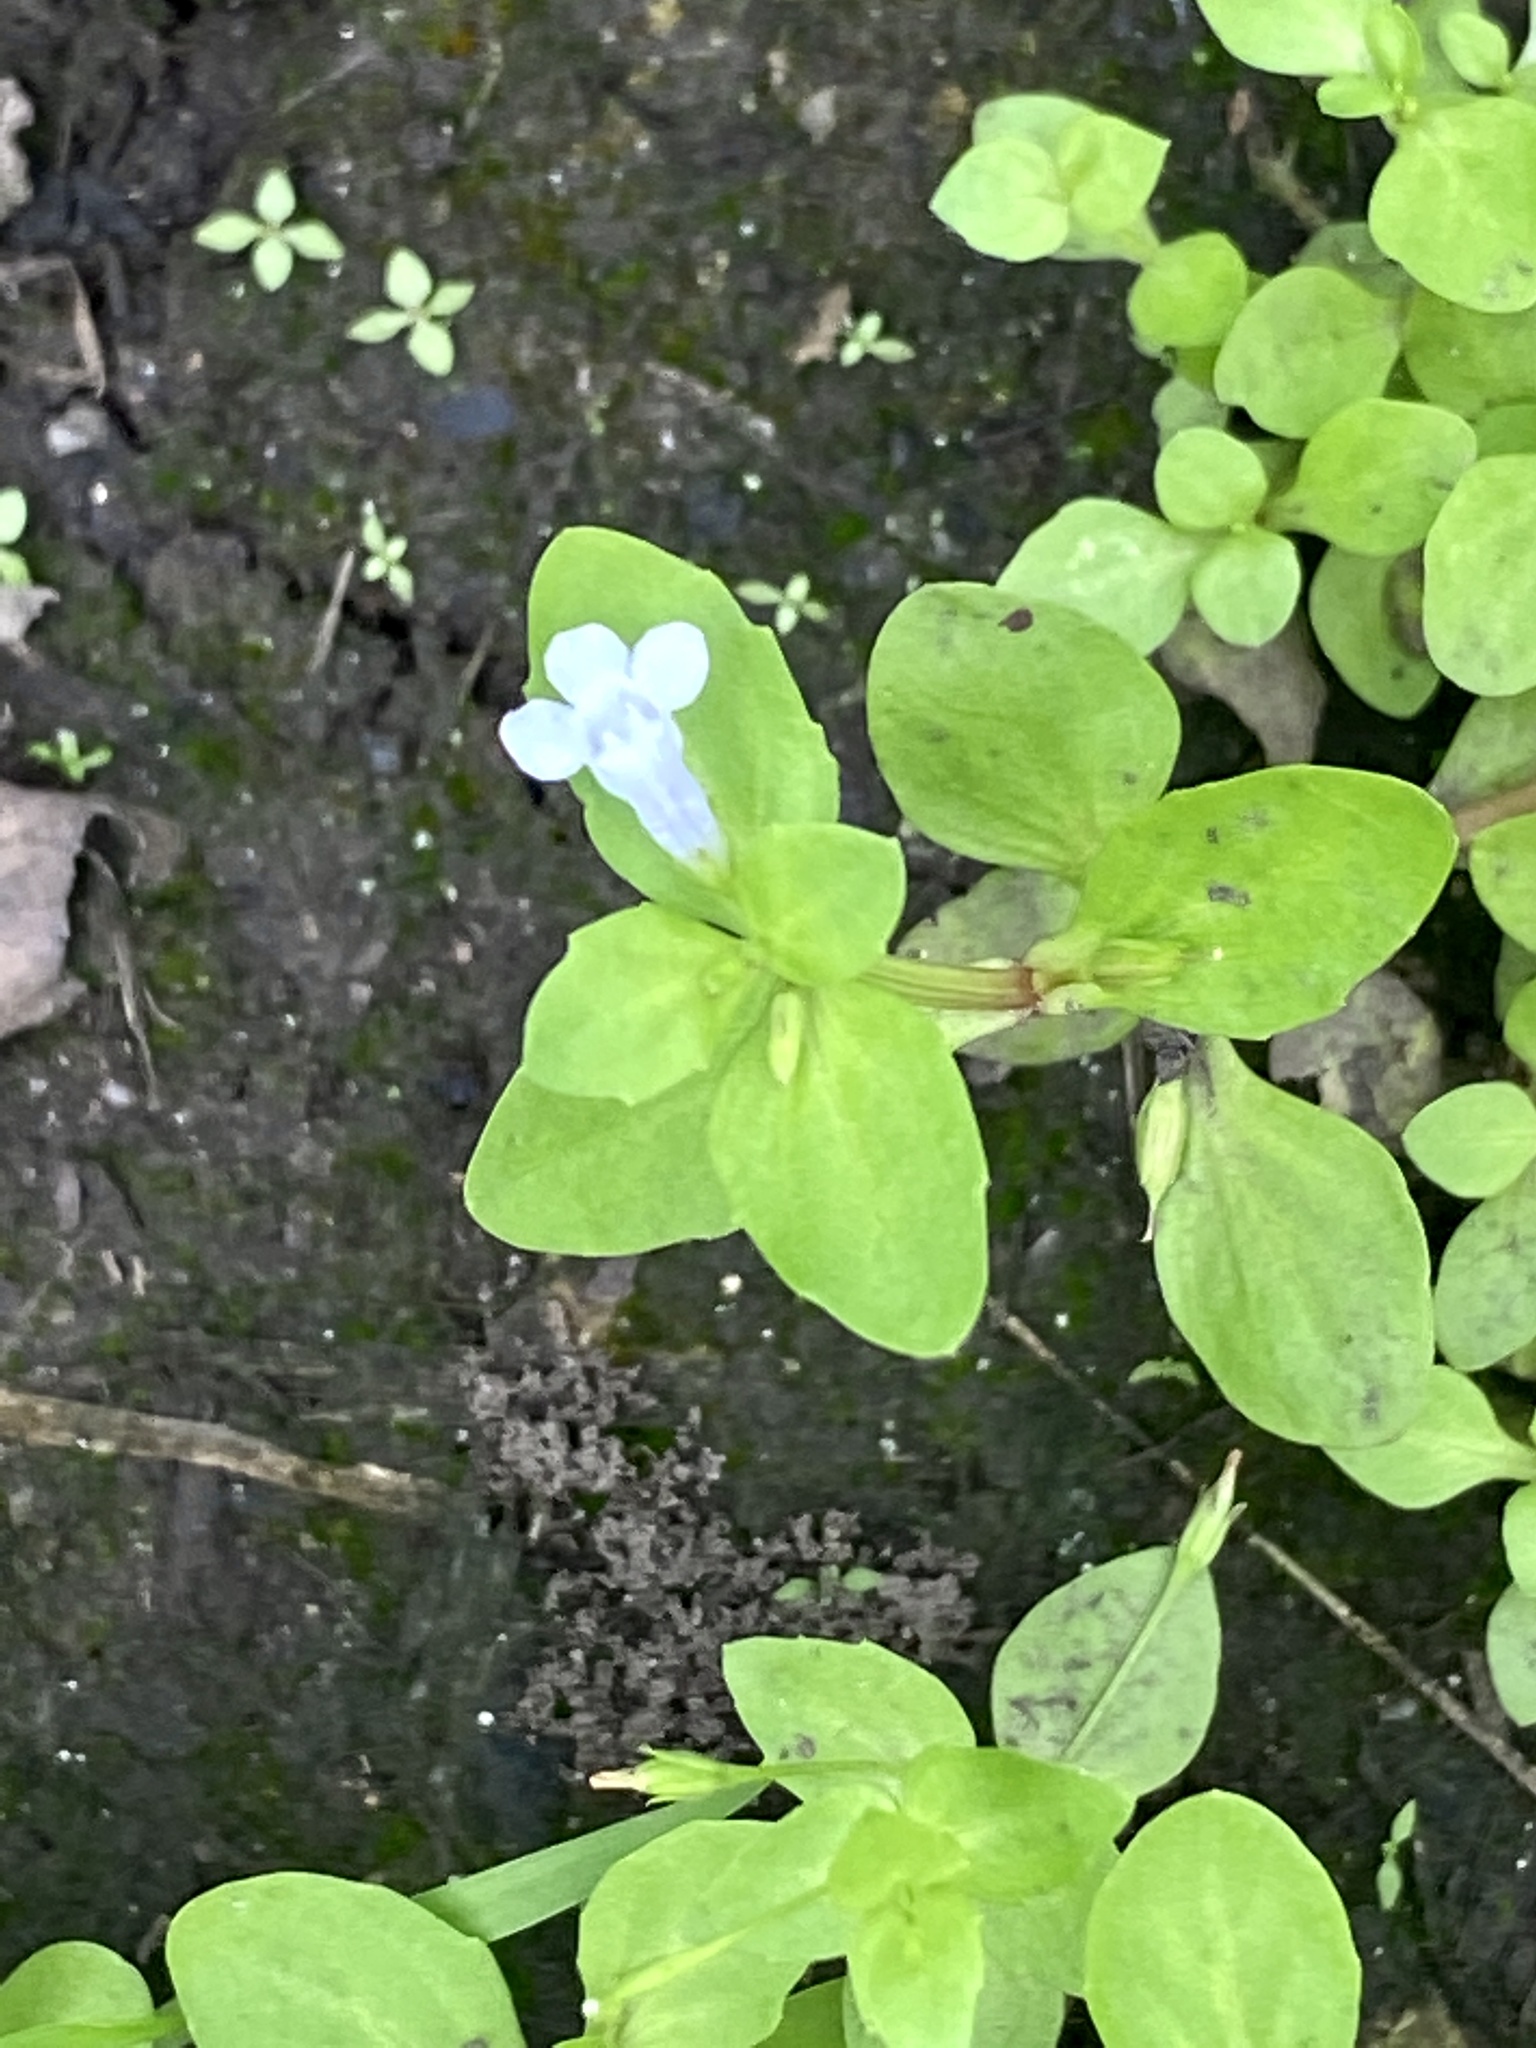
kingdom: Plantae
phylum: Tracheophyta
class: Magnoliopsida
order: Lamiales
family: Linderniaceae
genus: Lindernia
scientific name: Lindernia dubia
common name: Annual false pimpernel
